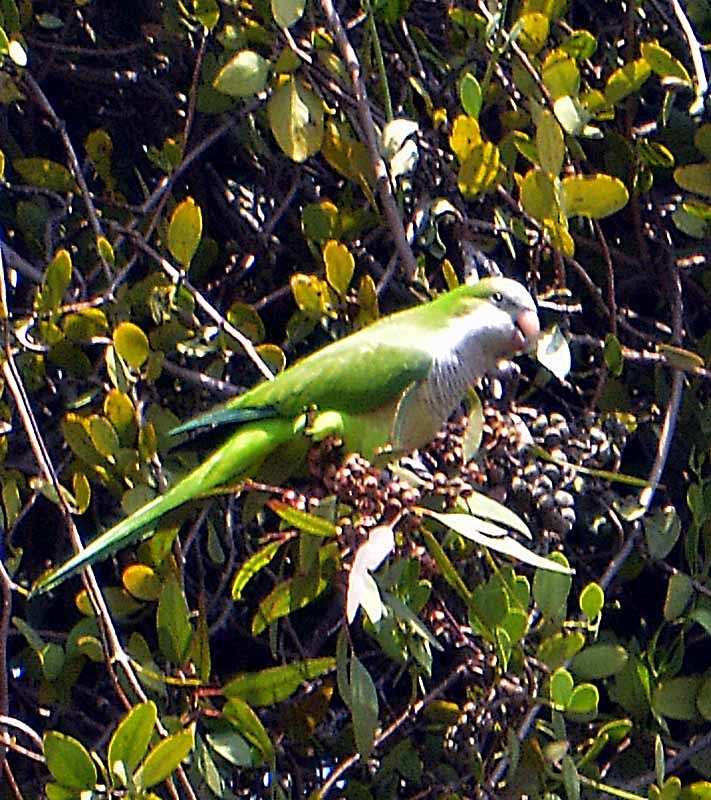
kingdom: Animalia
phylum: Chordata
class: Aves
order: Psittaciformes
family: Psittacidae
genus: Myiopsitta
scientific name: Myiopsitta monachus
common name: Monk parakeet
